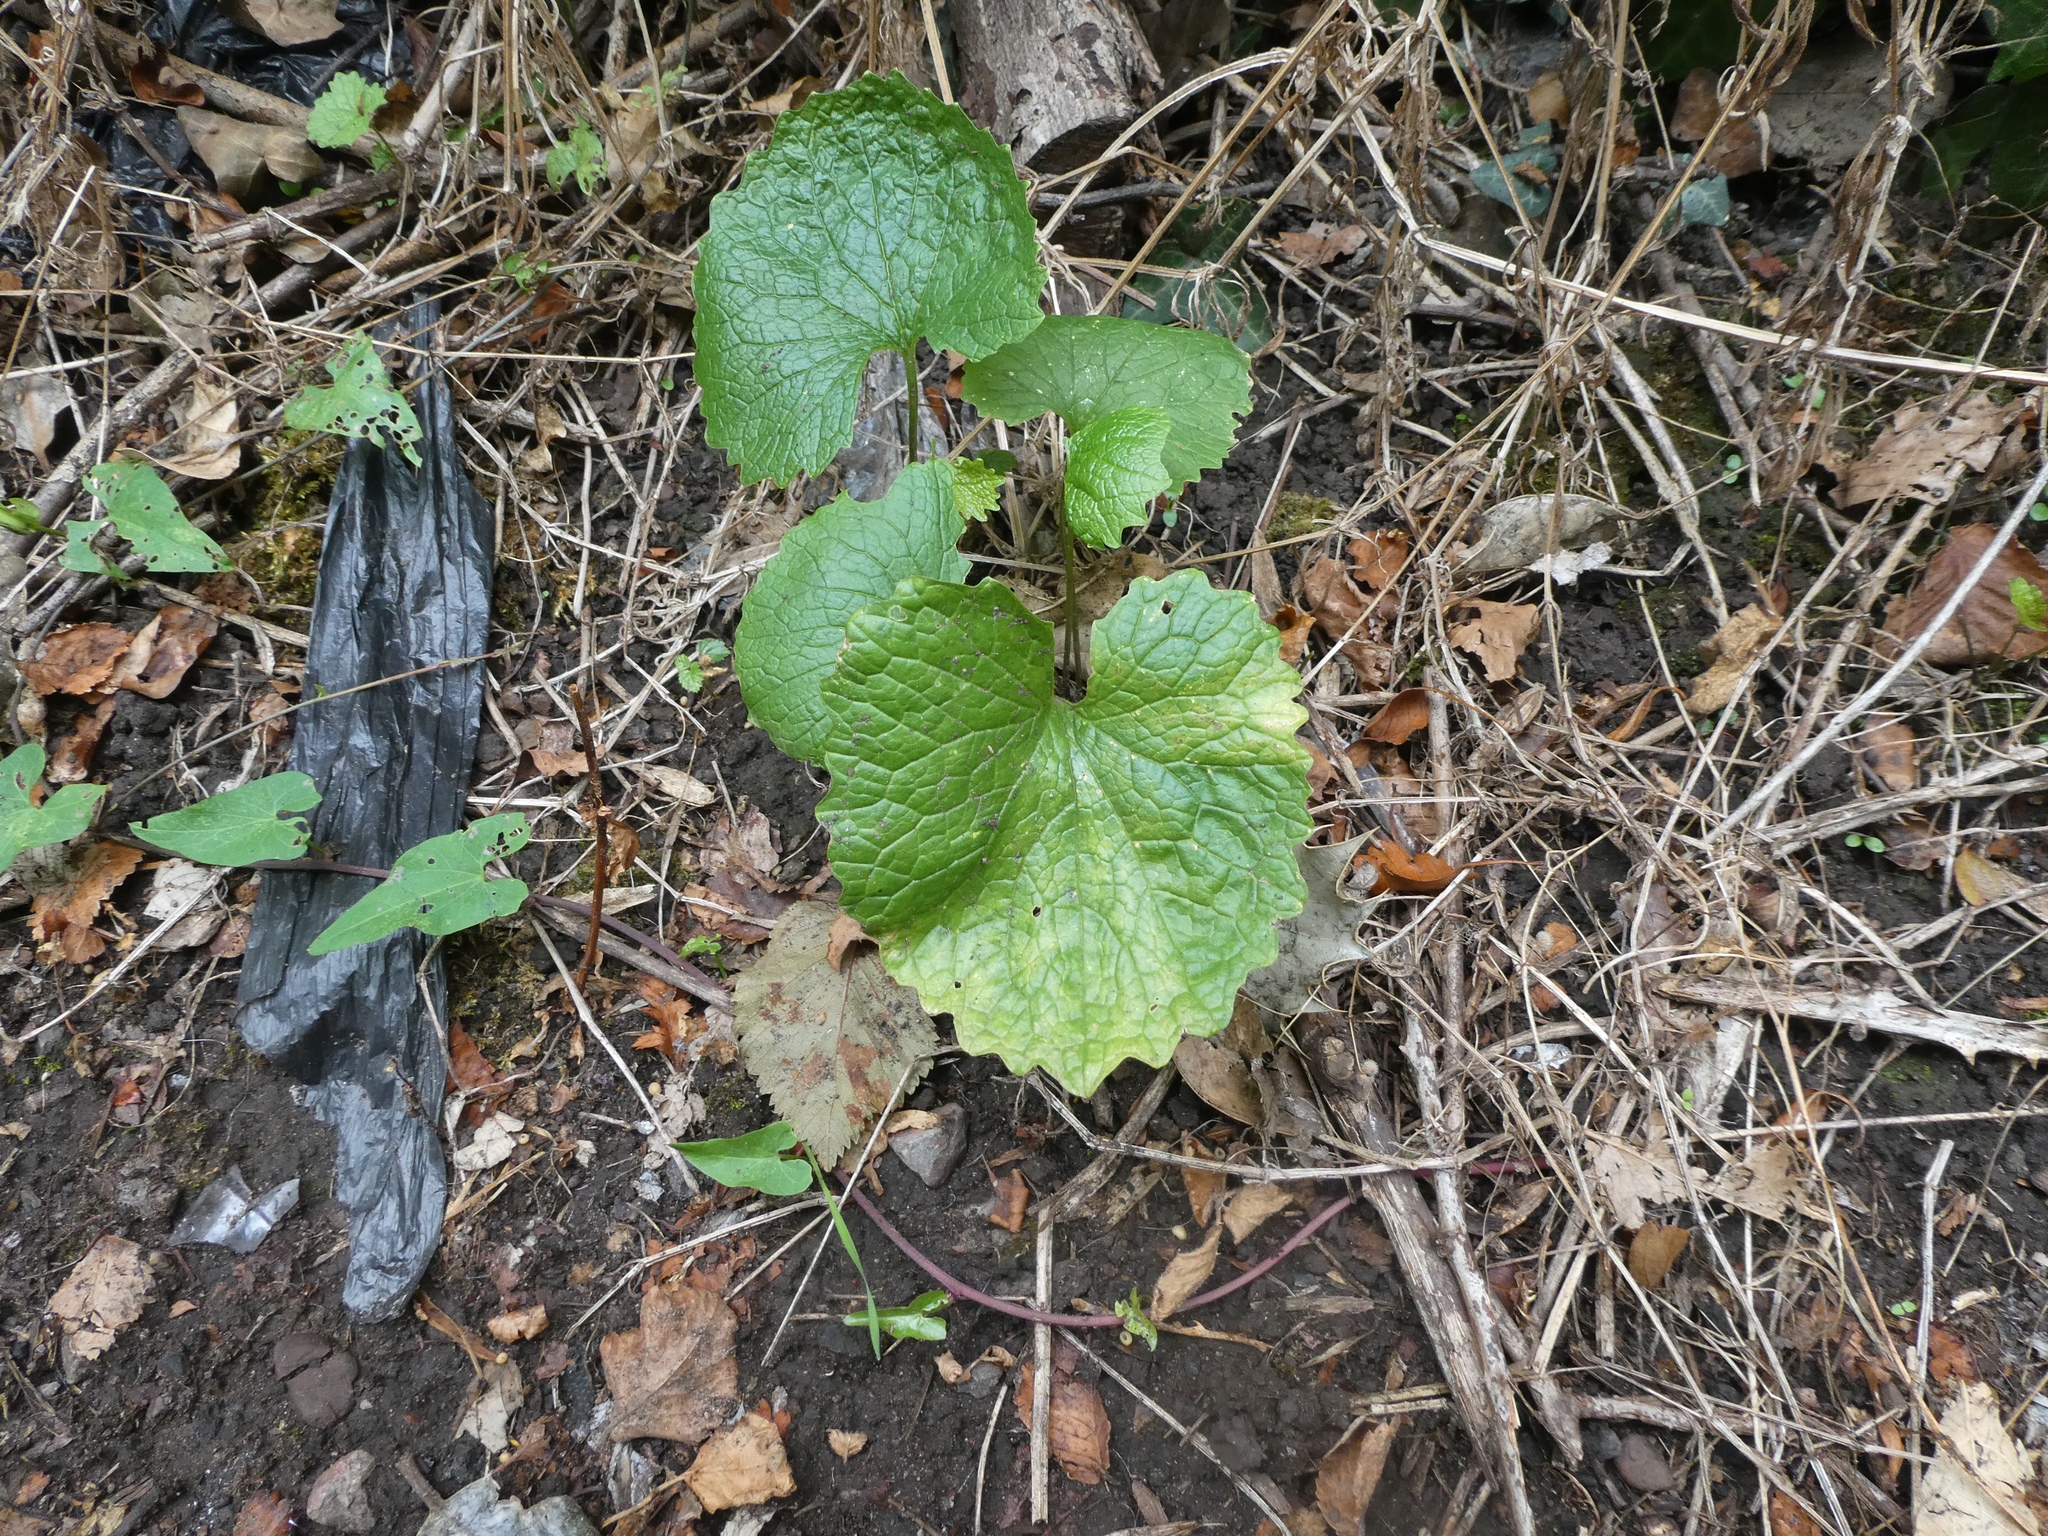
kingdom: Plantae
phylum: Tracheophyta
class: Magnoliopsida
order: Brassicales
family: Brassicaceae
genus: Alliaria
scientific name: Alliaria petiolata
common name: Garlic mustard
